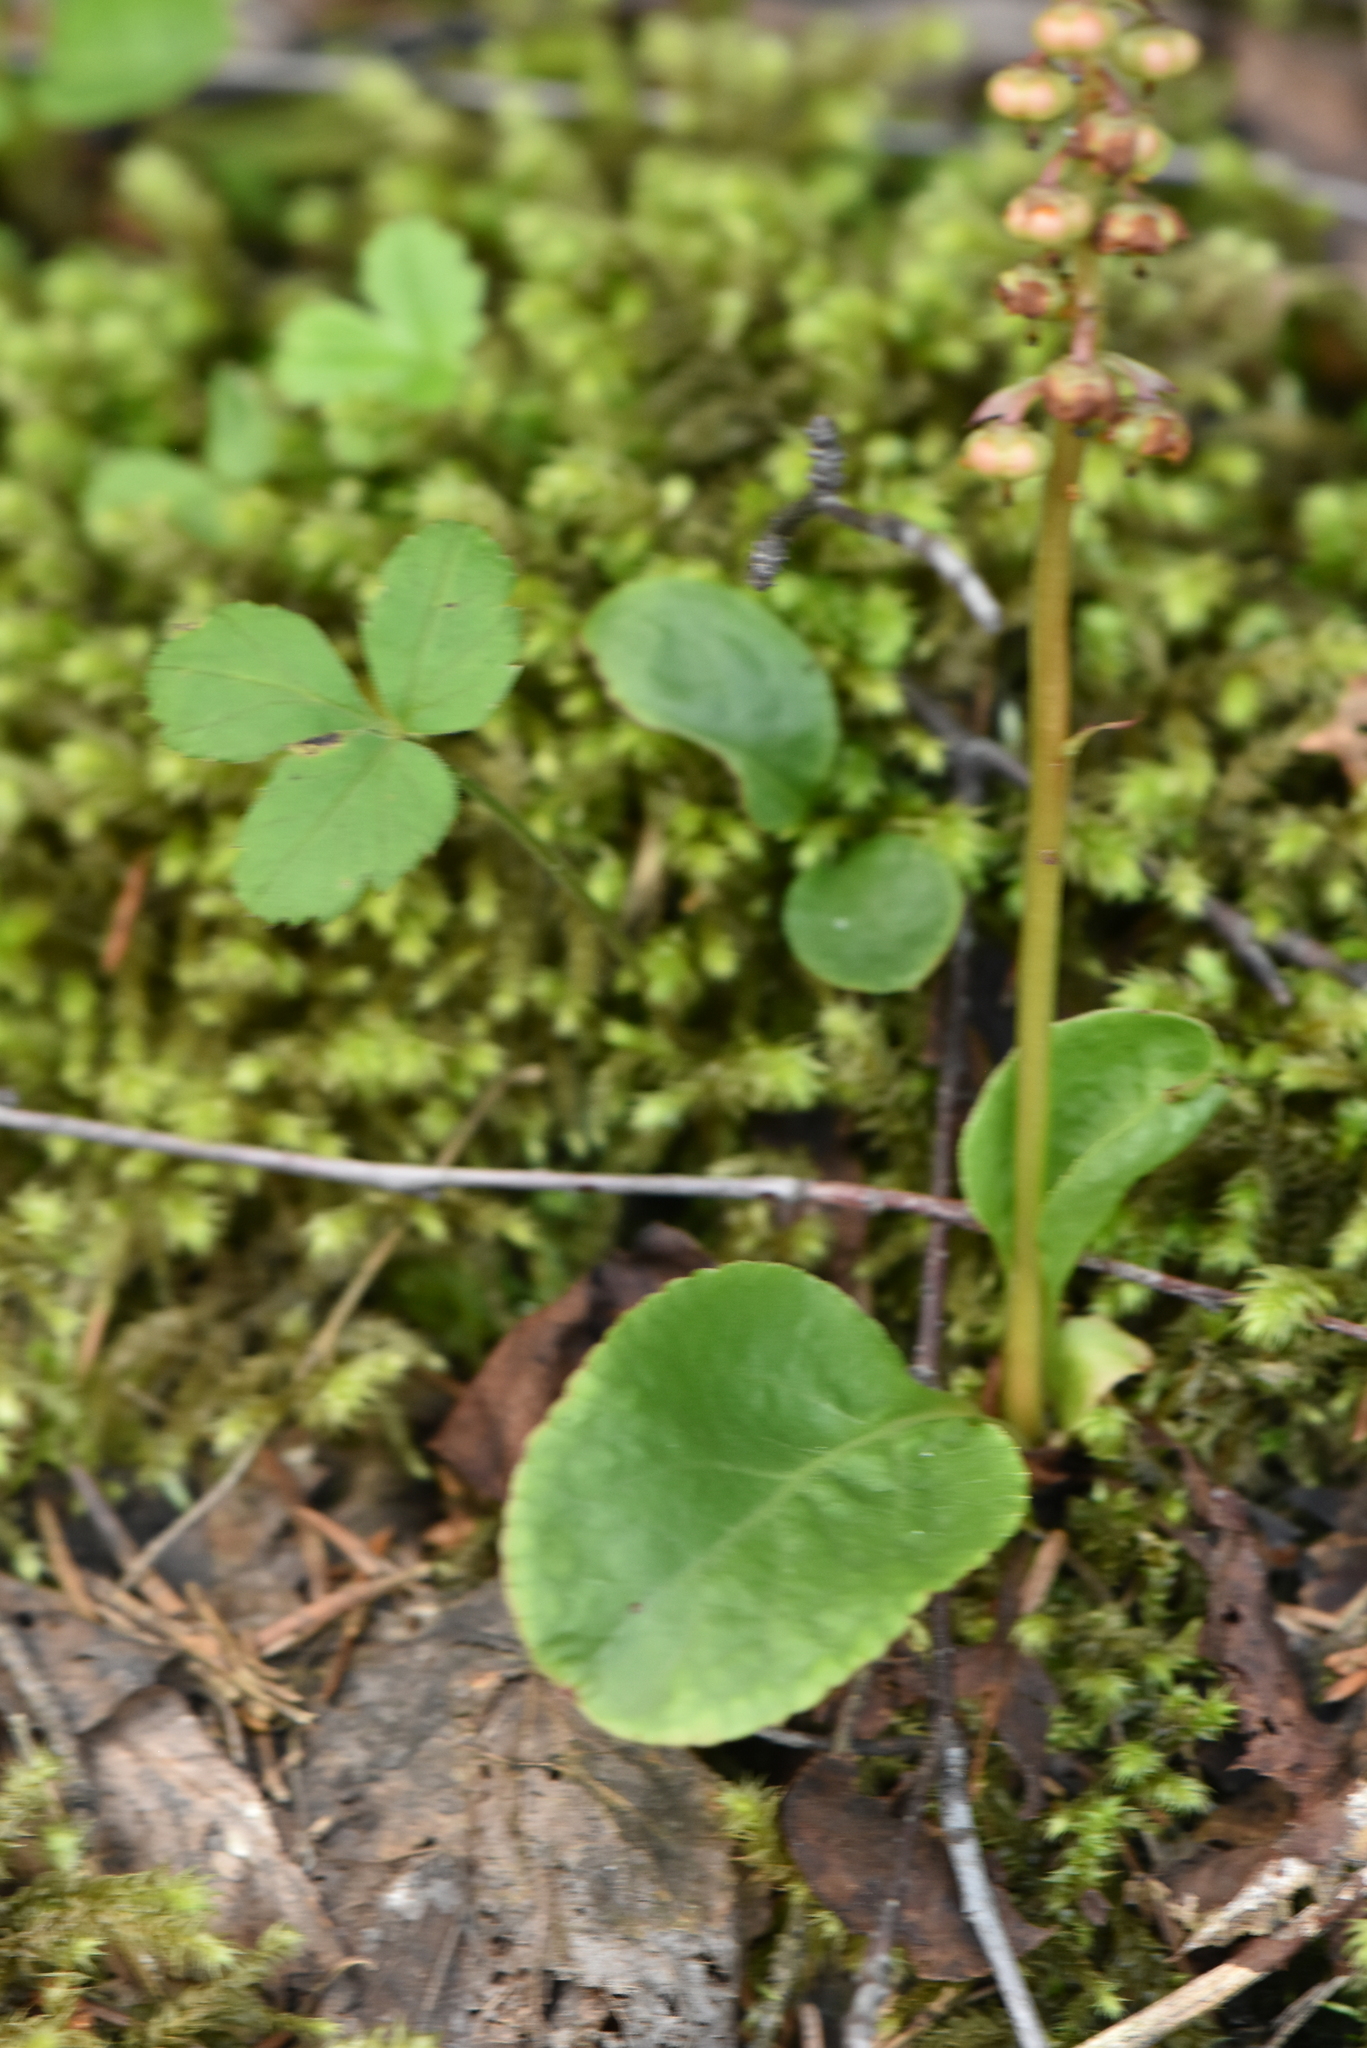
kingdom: Plantae
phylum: Tracheophyta
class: Magnoliopsida
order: Ericales
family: Ericaceae
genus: Pyrola
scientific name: Pyrola minor
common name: Common wintergreen
